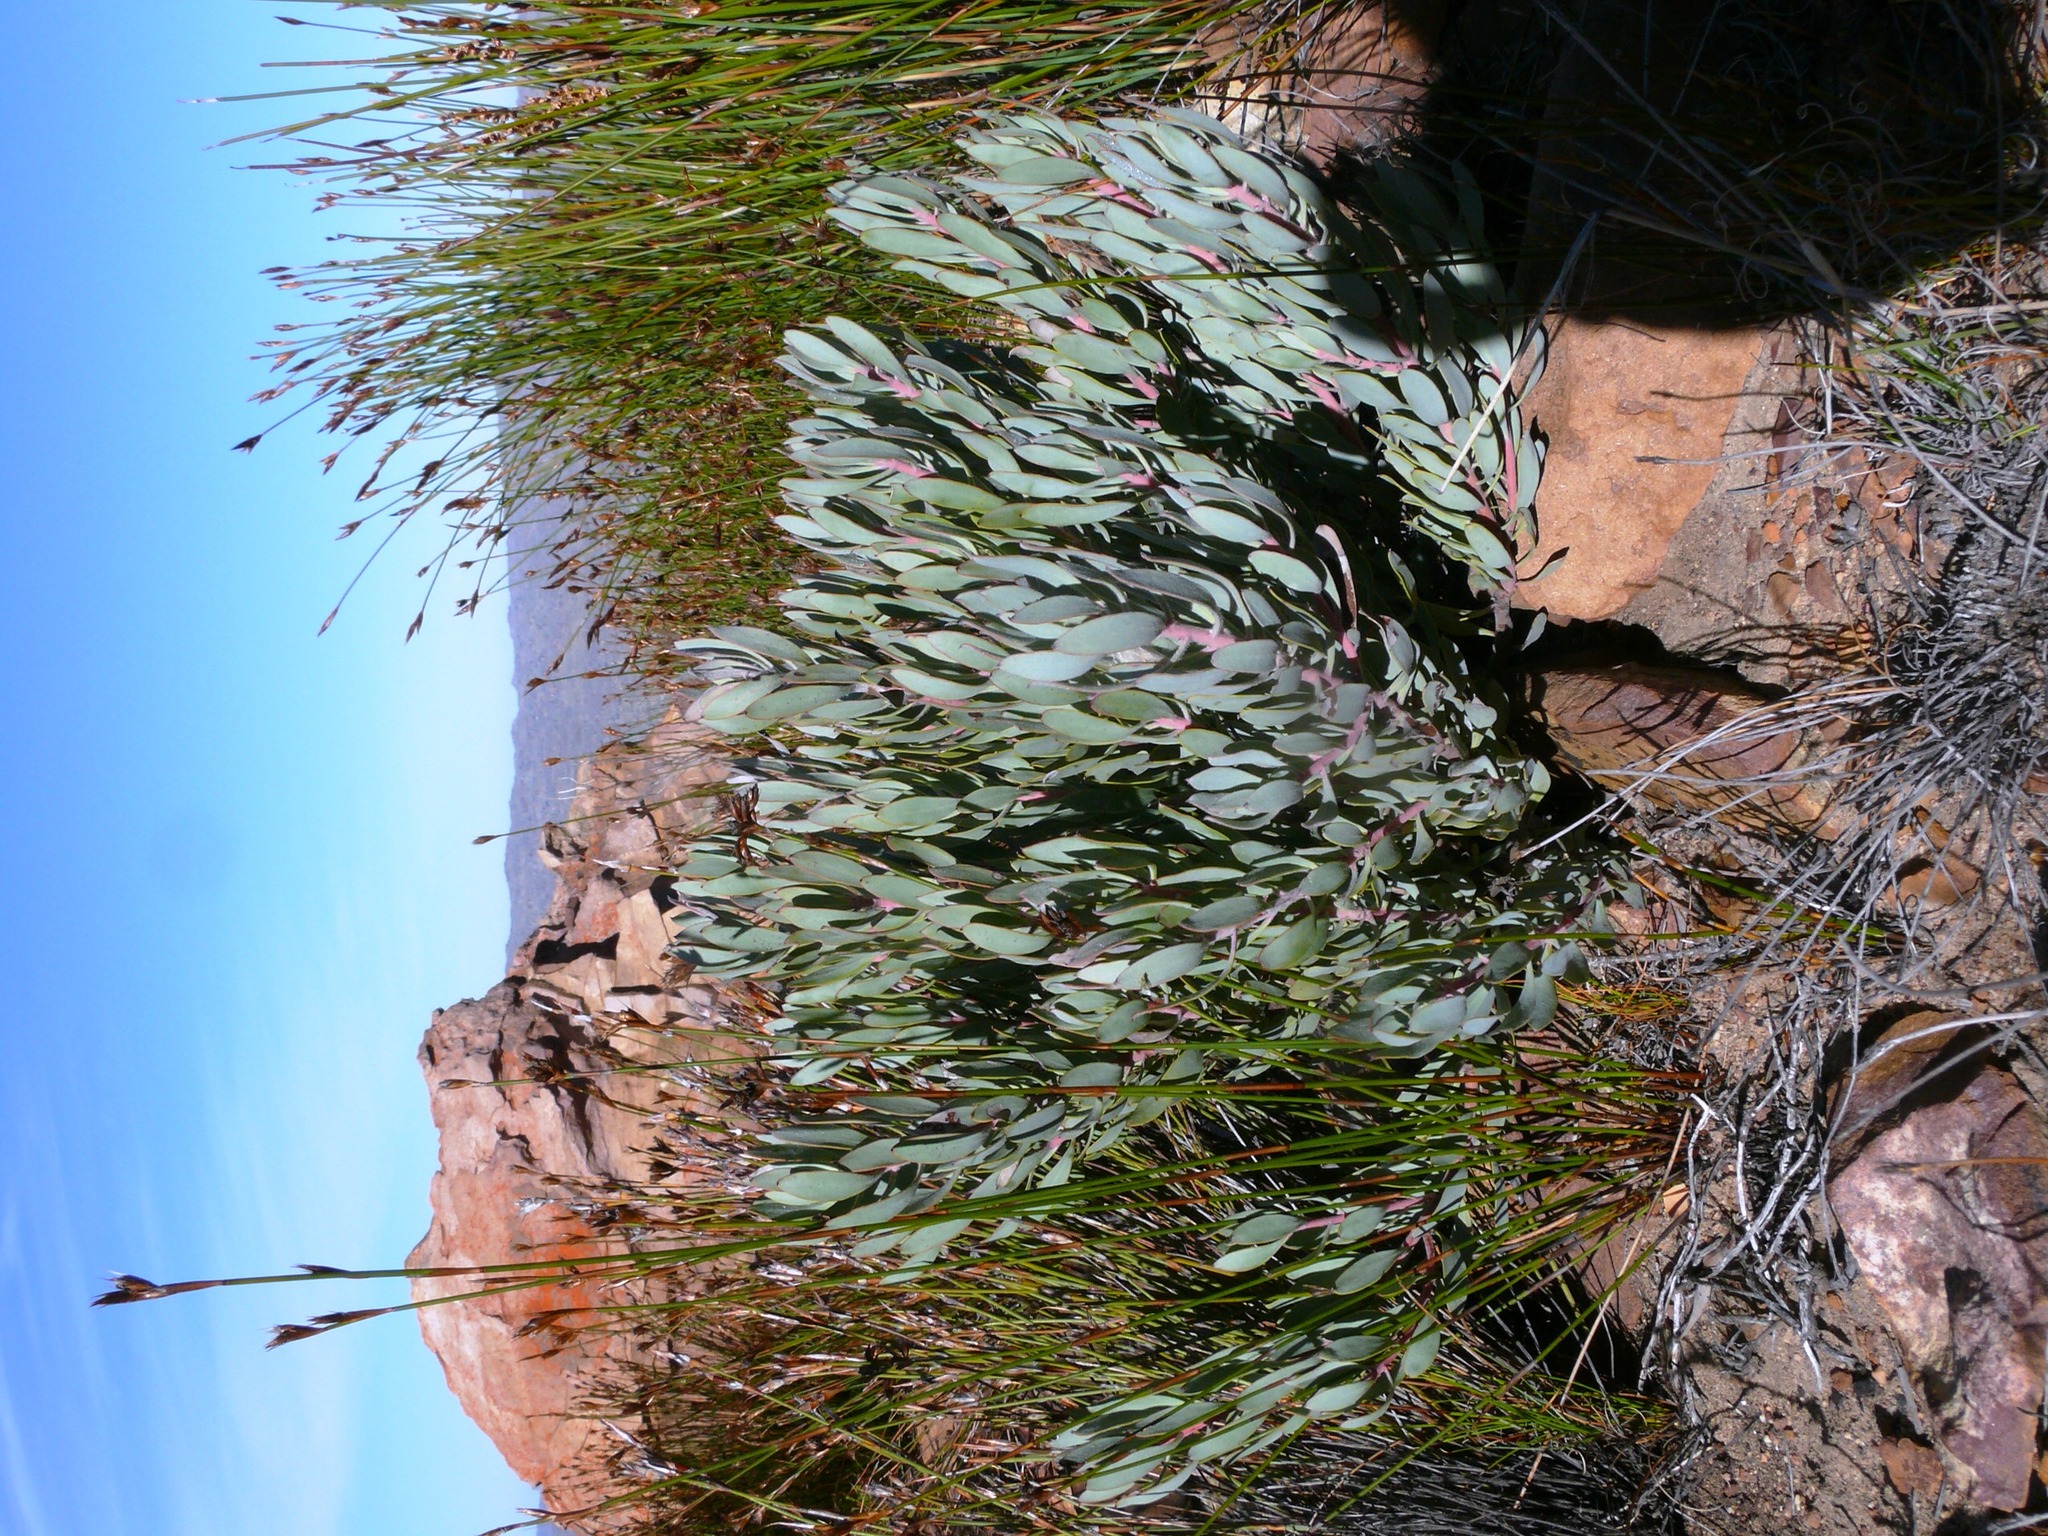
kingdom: Plantae
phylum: Tracheophyta
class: Magnoliopsida
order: Proteales
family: Proteaceae
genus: Protea
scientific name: Protea pendula
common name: Nodding sugarbush
